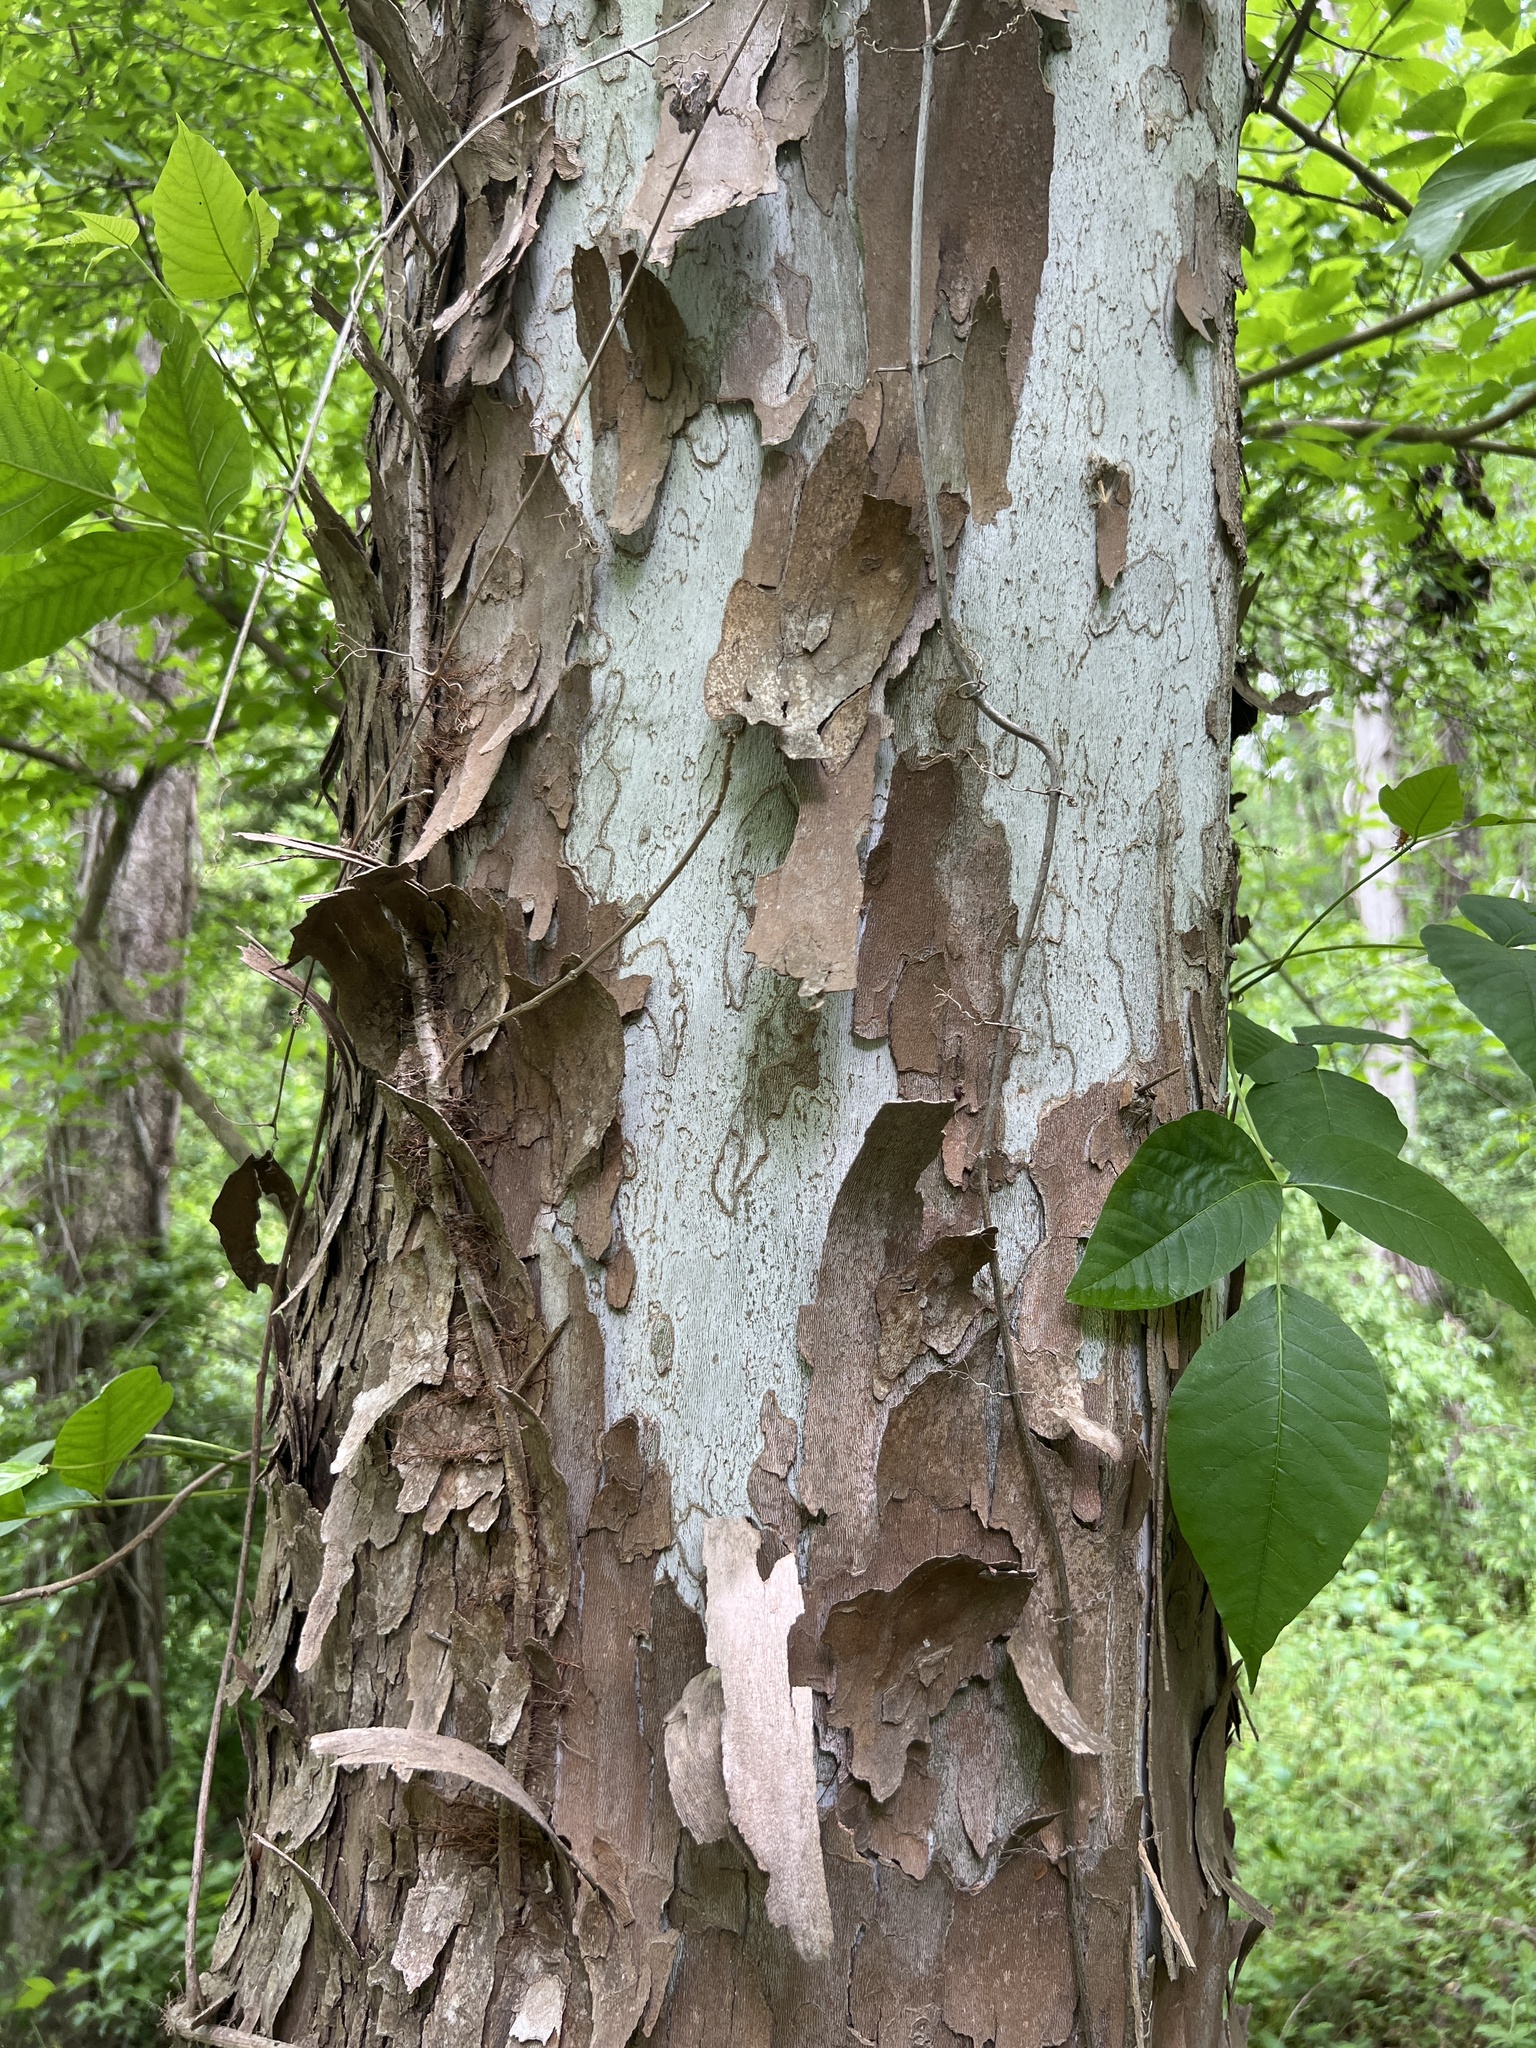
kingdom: Plantae
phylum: Tracheophyta
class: Magnoliopsida
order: Proteales
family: Platanaceae
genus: Platanus
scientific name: Platanus occidentalis
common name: American sycamore
